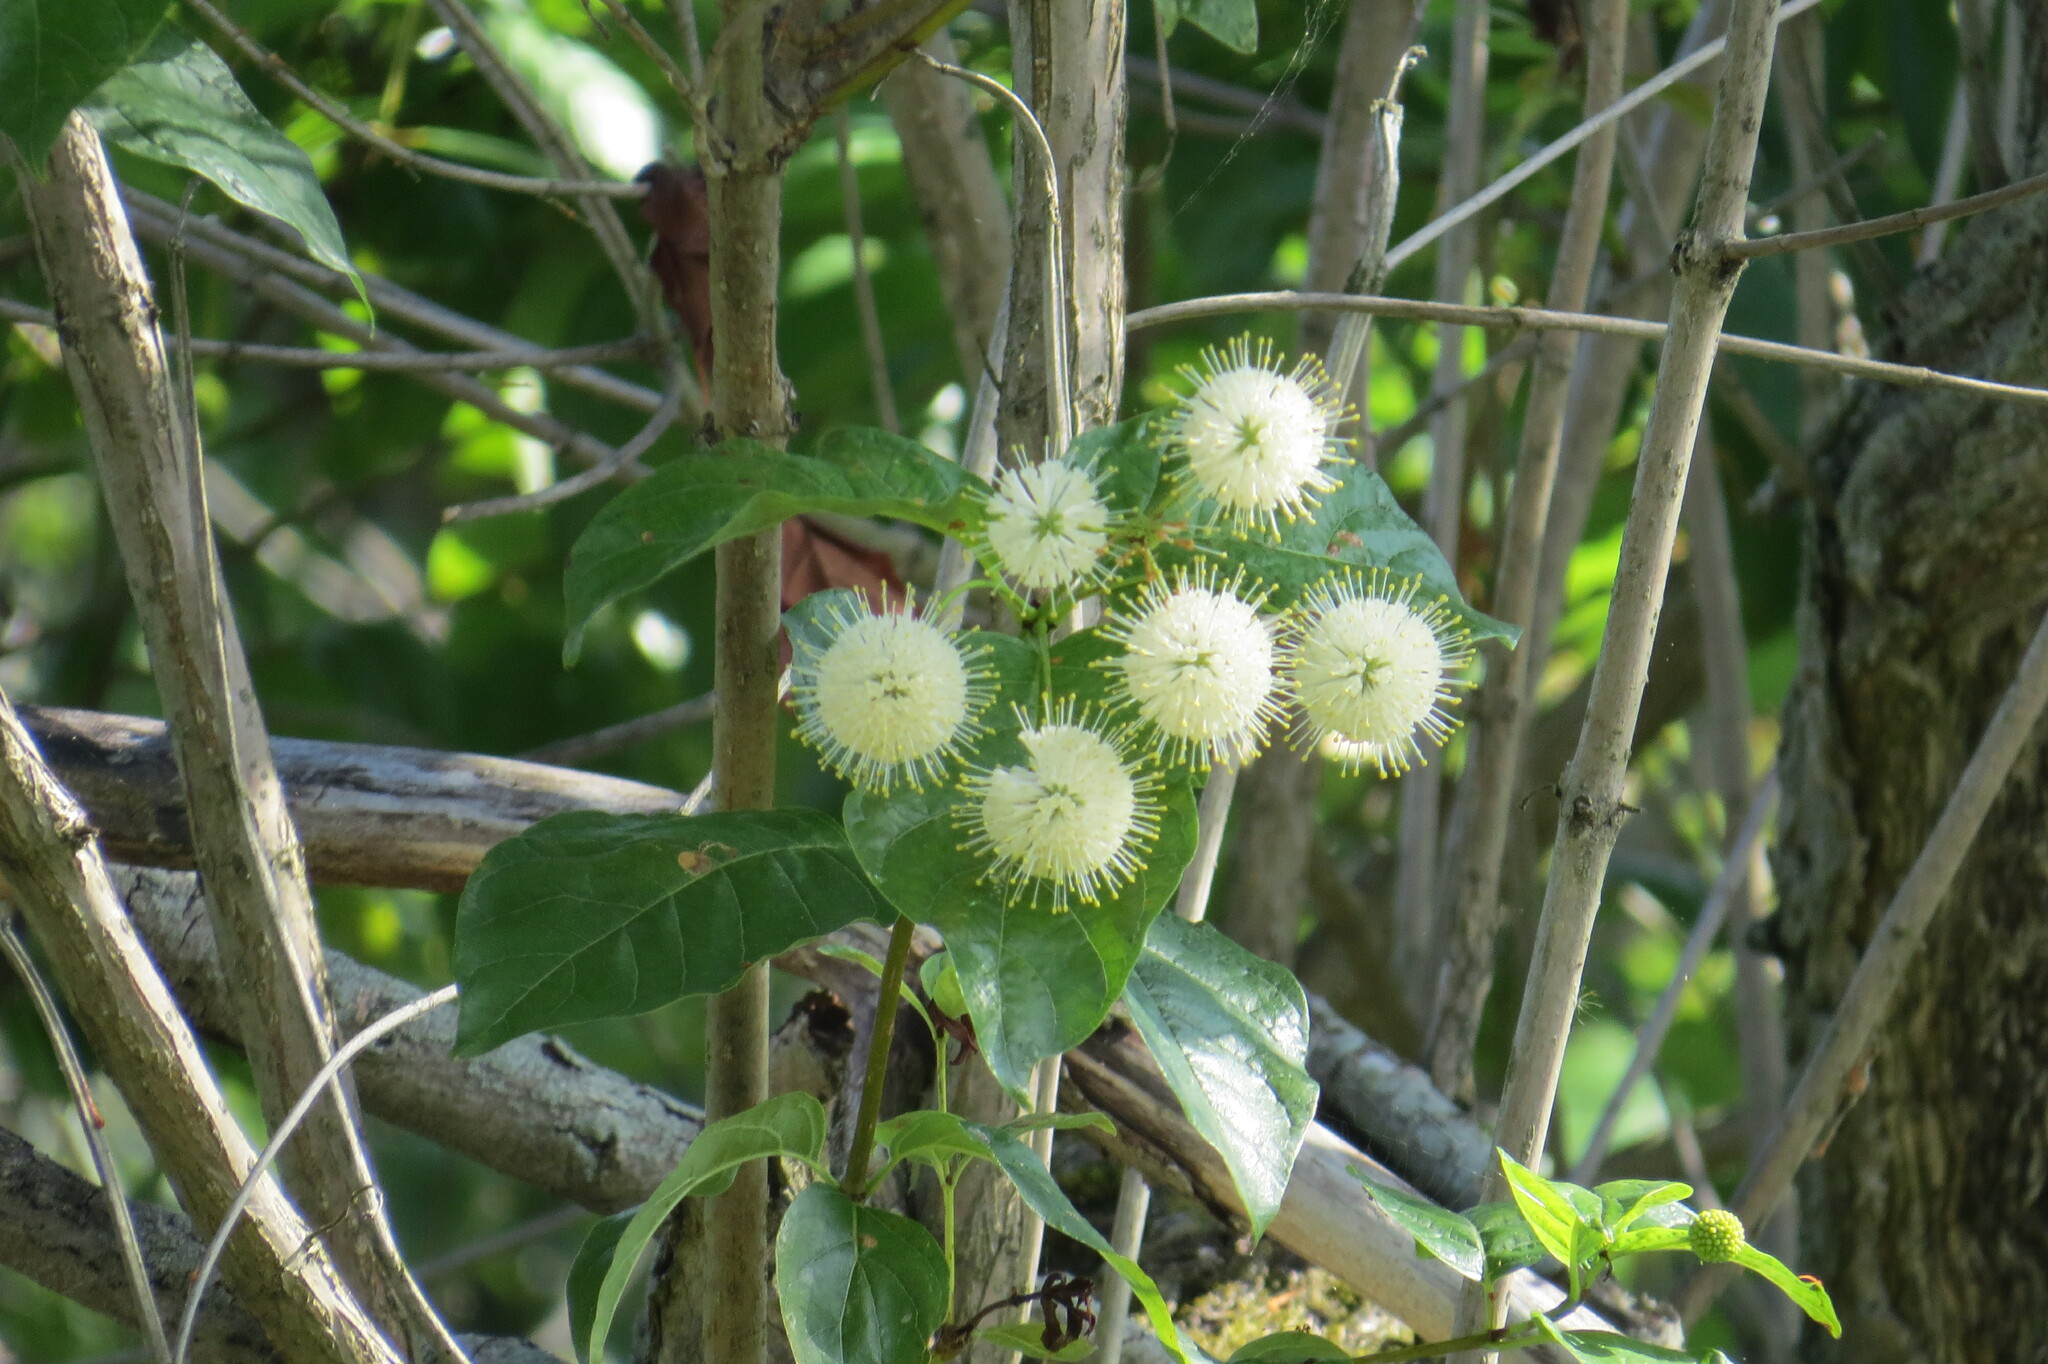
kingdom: Plantae
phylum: Tracheophyta
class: Magnoliopsida
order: Gentianales
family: Rubiaceae
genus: Cephalanthus
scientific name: Cephalanthus occidentalis
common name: Button-willow
